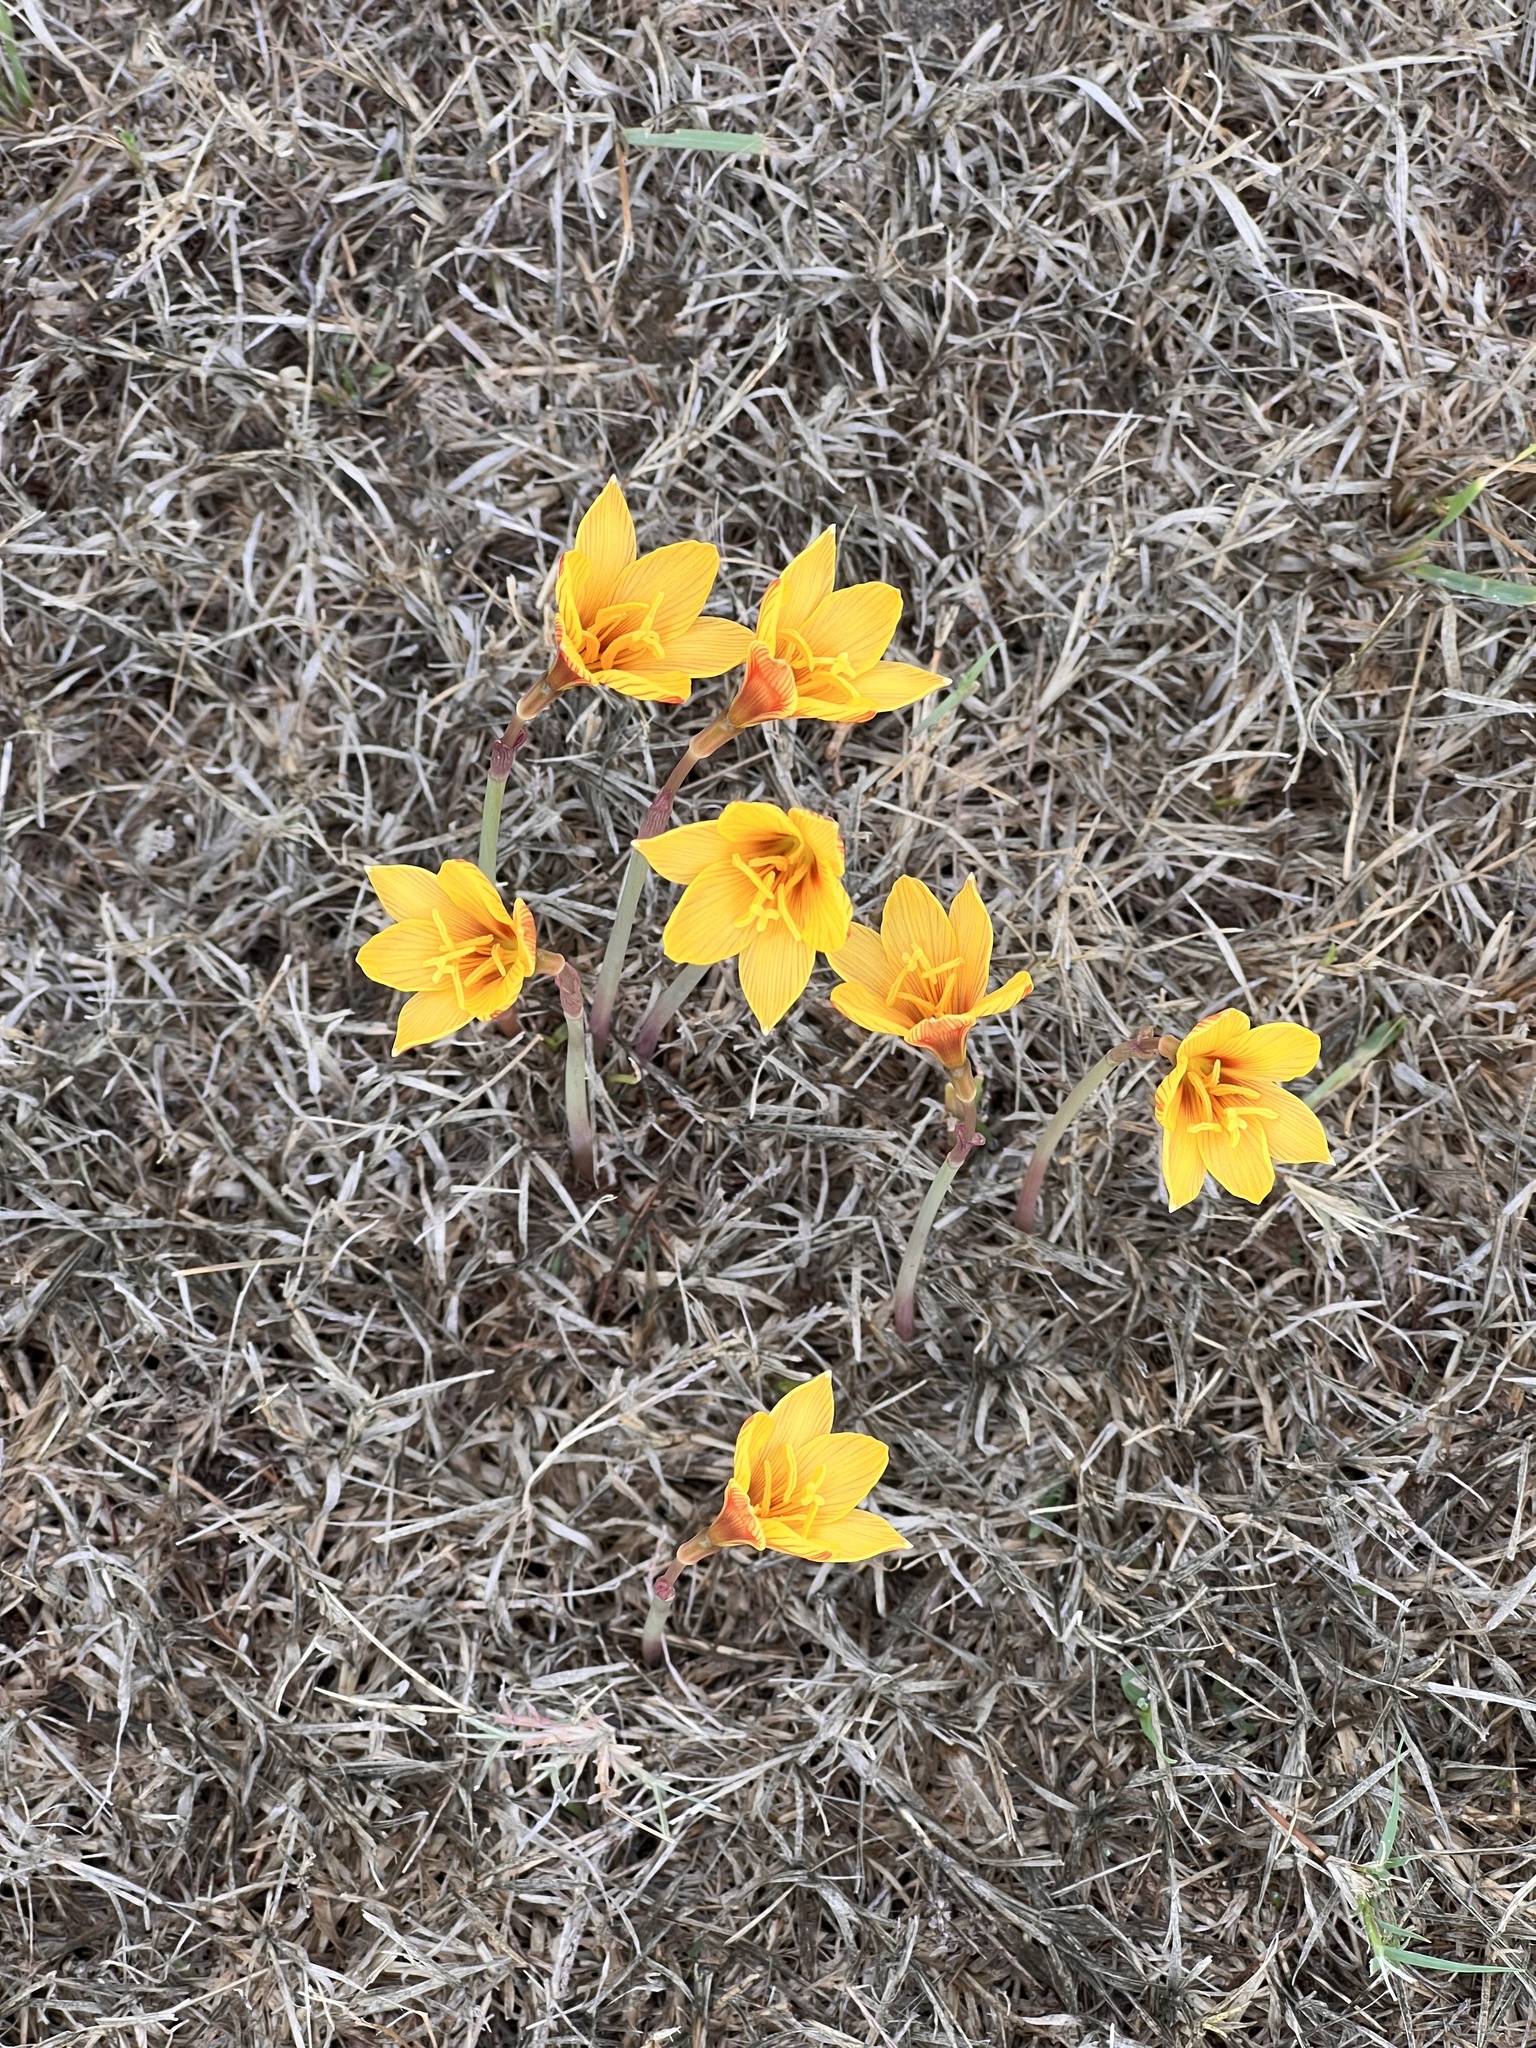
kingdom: Plantae
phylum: Tracheophyta
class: Liliopsida
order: Asparagales
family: Amaryllidaceae
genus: Zephyranthes
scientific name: Zephyranthes tubispatha
